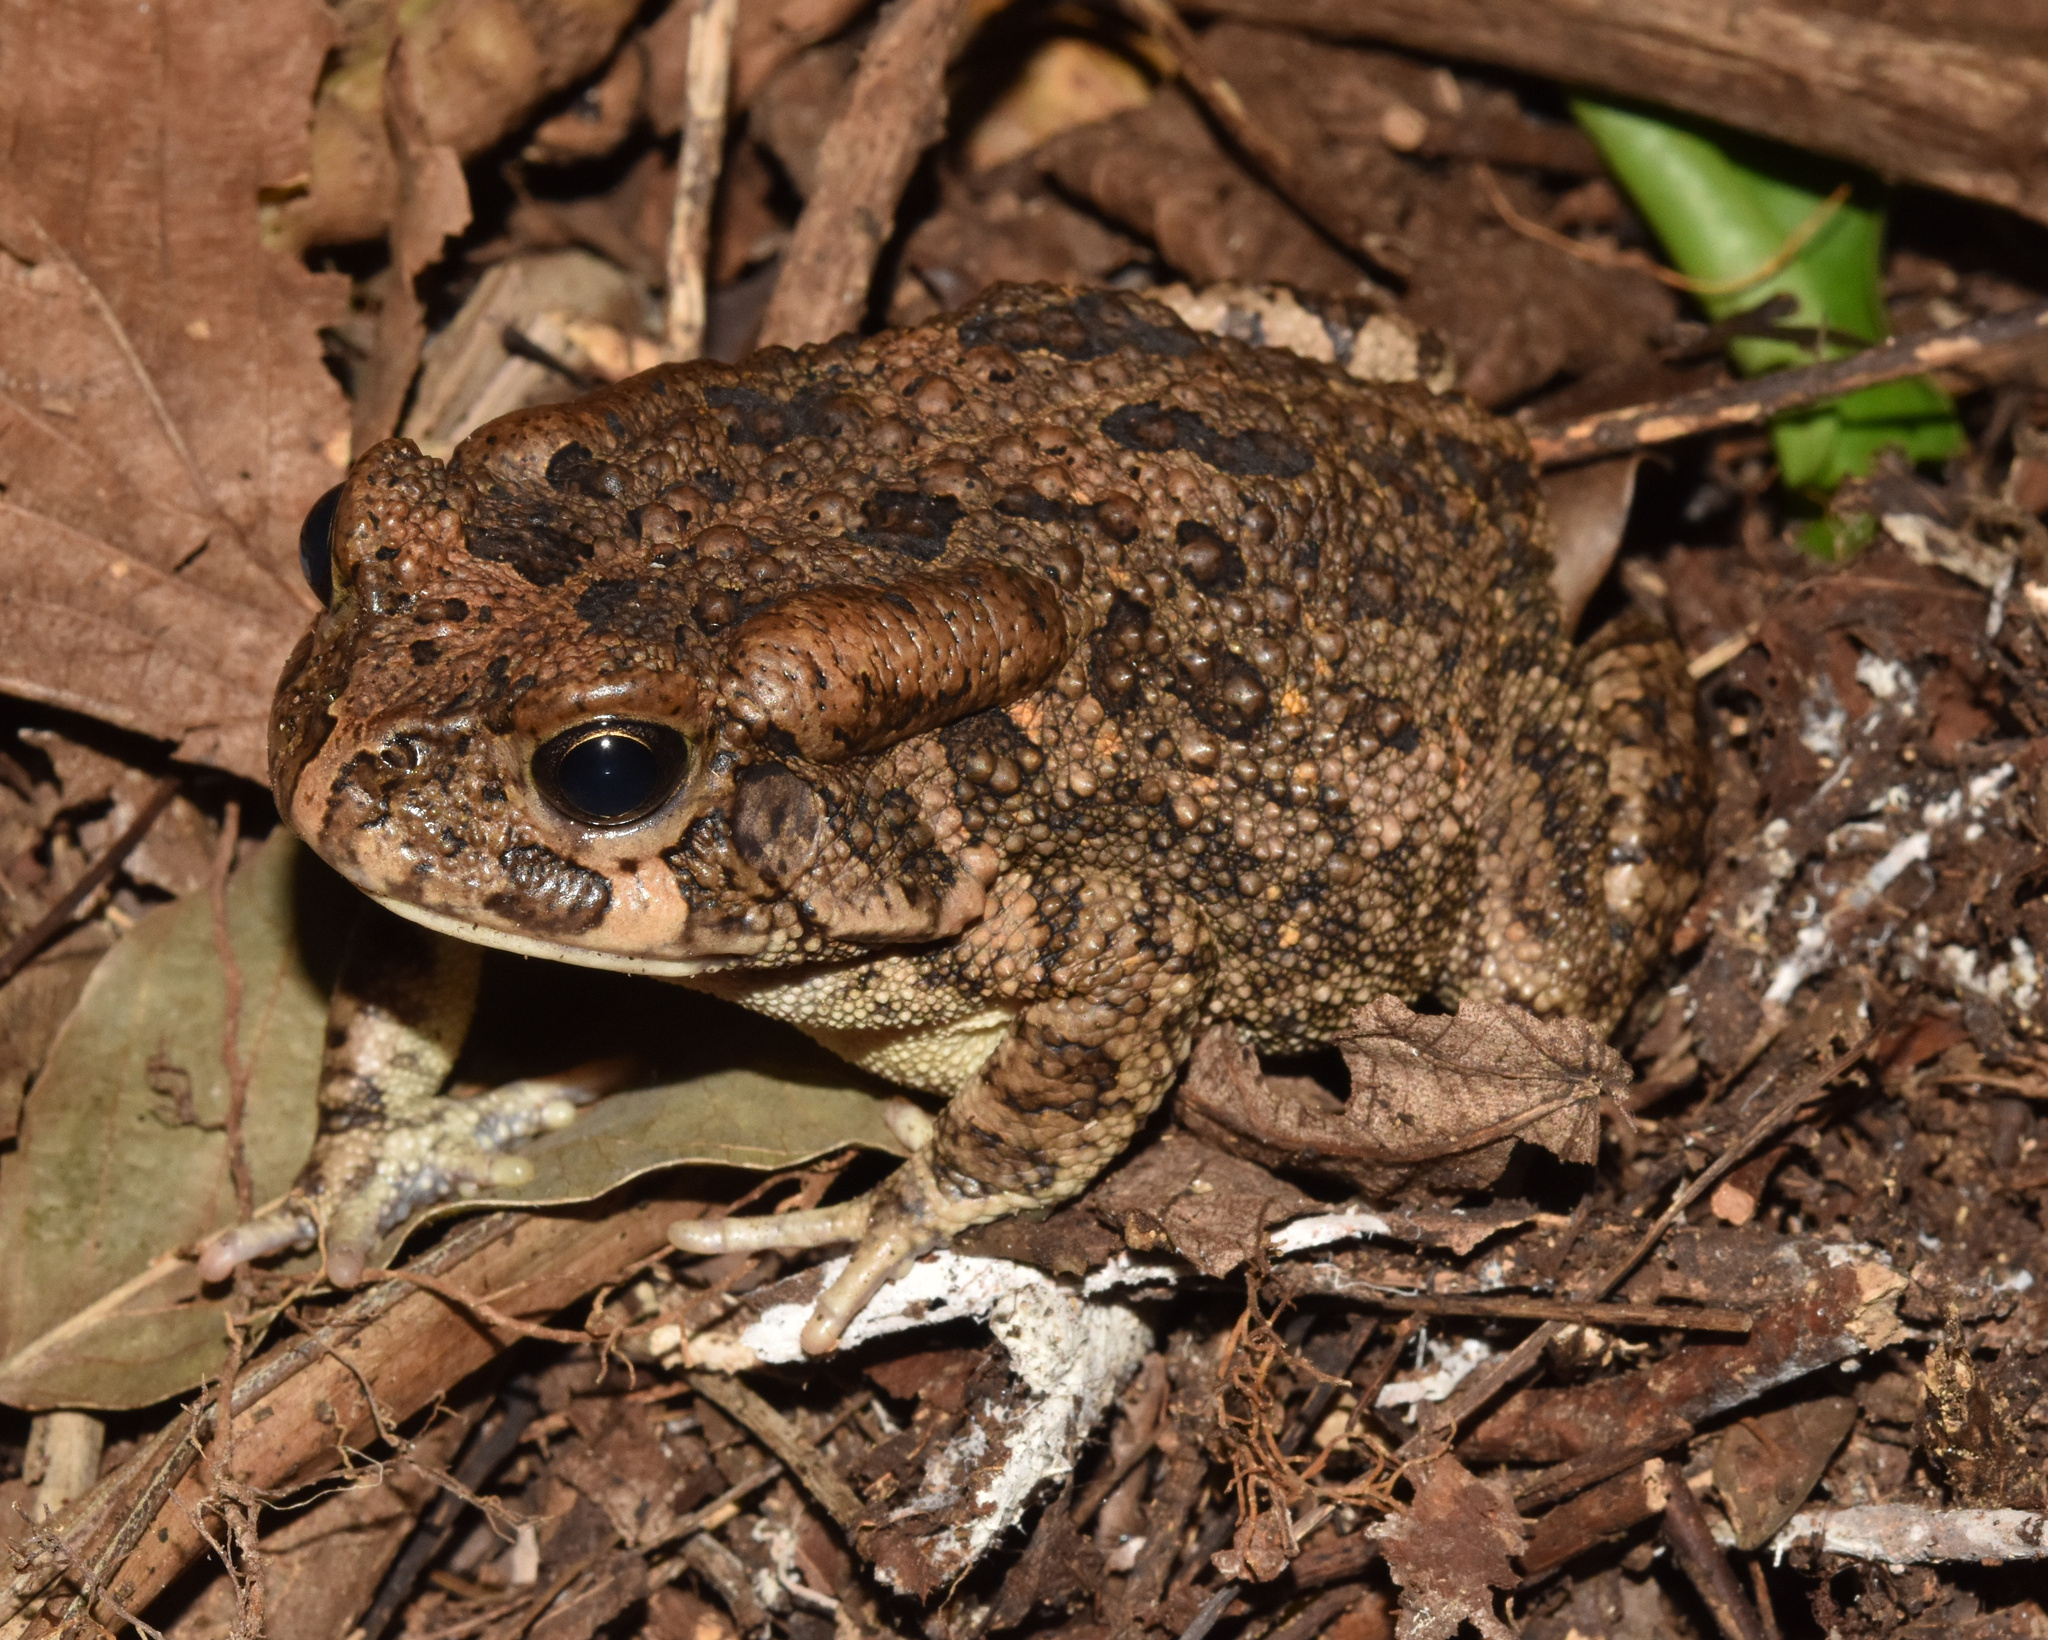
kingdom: Animalia
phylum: Chordata
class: Amphibia
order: Anura
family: Bufonidae
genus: Sclerophrys
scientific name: Sclerophrys gutturalis
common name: African common toad
